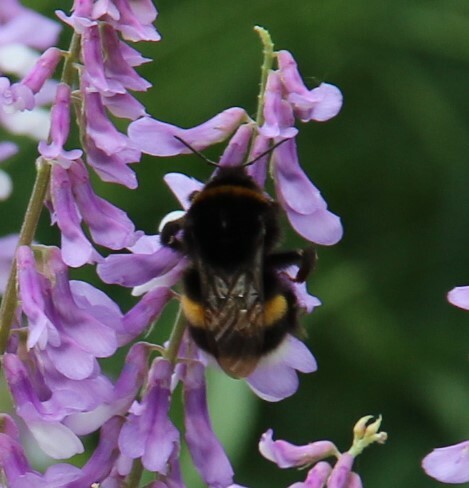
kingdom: Animalia
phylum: Arthropoda
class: Insecta
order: Hymenoptera
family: Apidae
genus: Bombus
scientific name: Bombus
